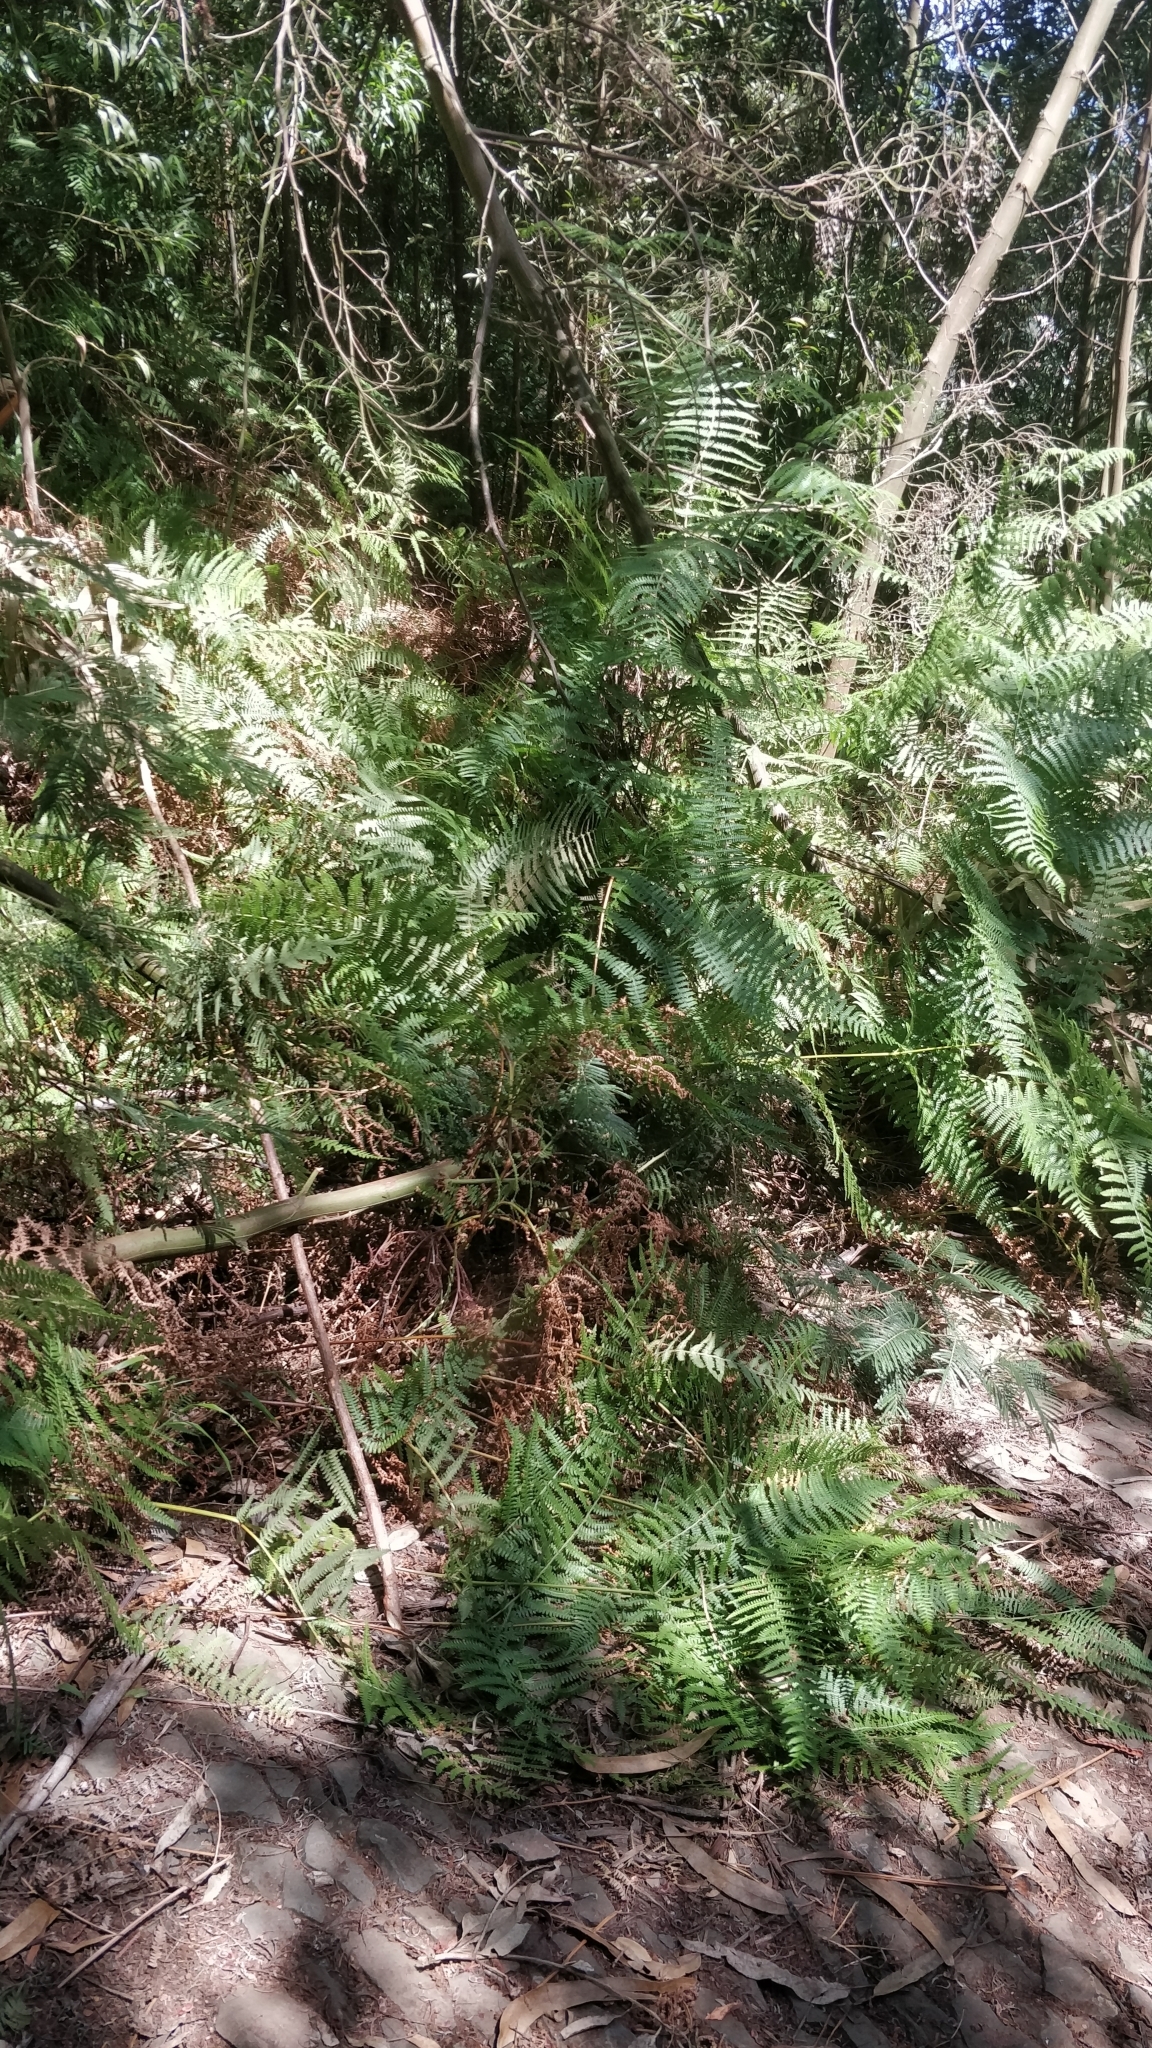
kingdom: Plantae
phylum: Tracheophyta
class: Polypodiopsida
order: Polypodiales
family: Dennstaedtiaceae
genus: Pteridium
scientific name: Pteridium aquilinum
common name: Bracken
